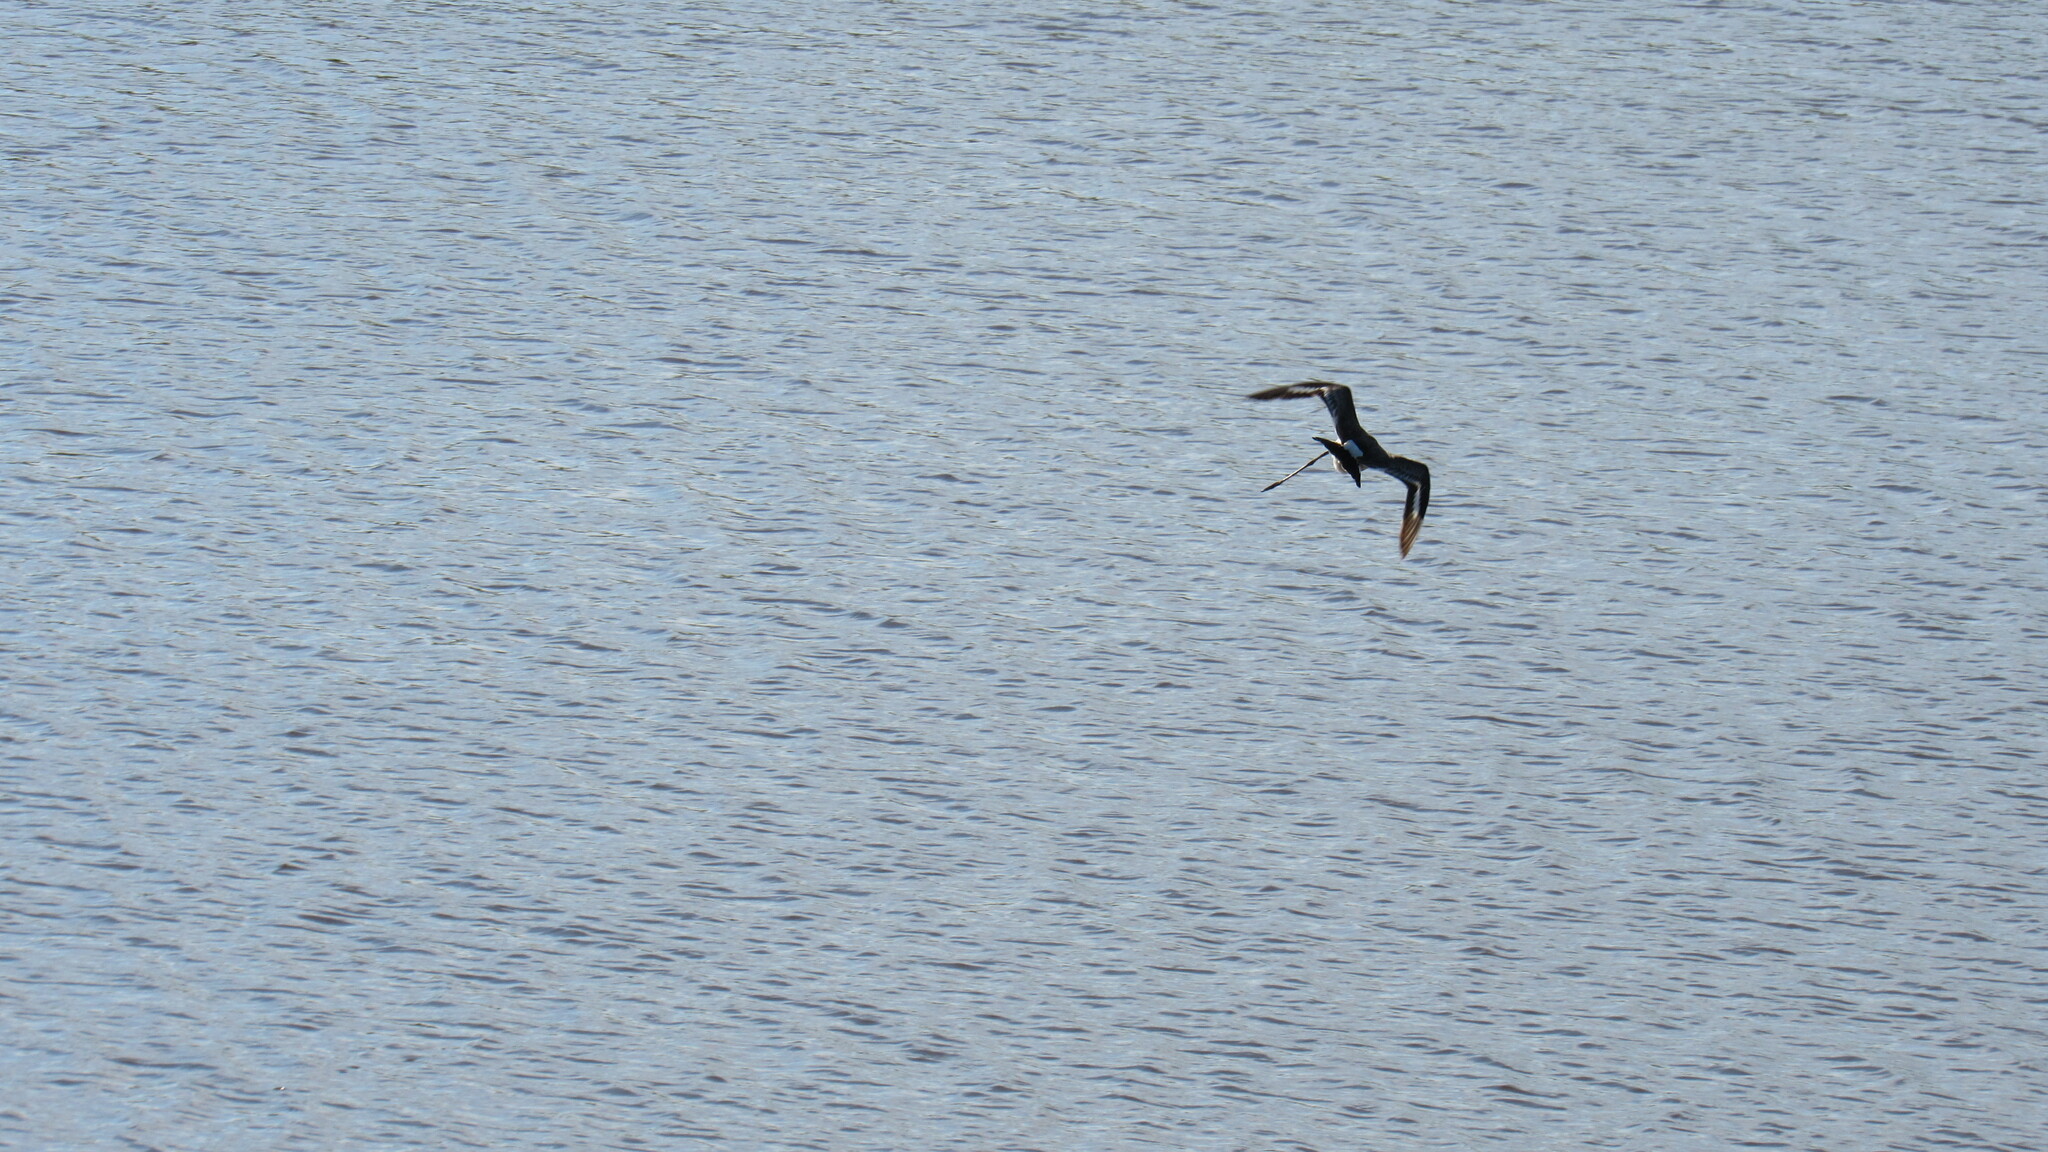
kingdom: Animalia
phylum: Chordata
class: Aves
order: Charadriiformes
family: Scolopacidae
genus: Limosa
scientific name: Limosa limosa
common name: Black-tailed godwit
